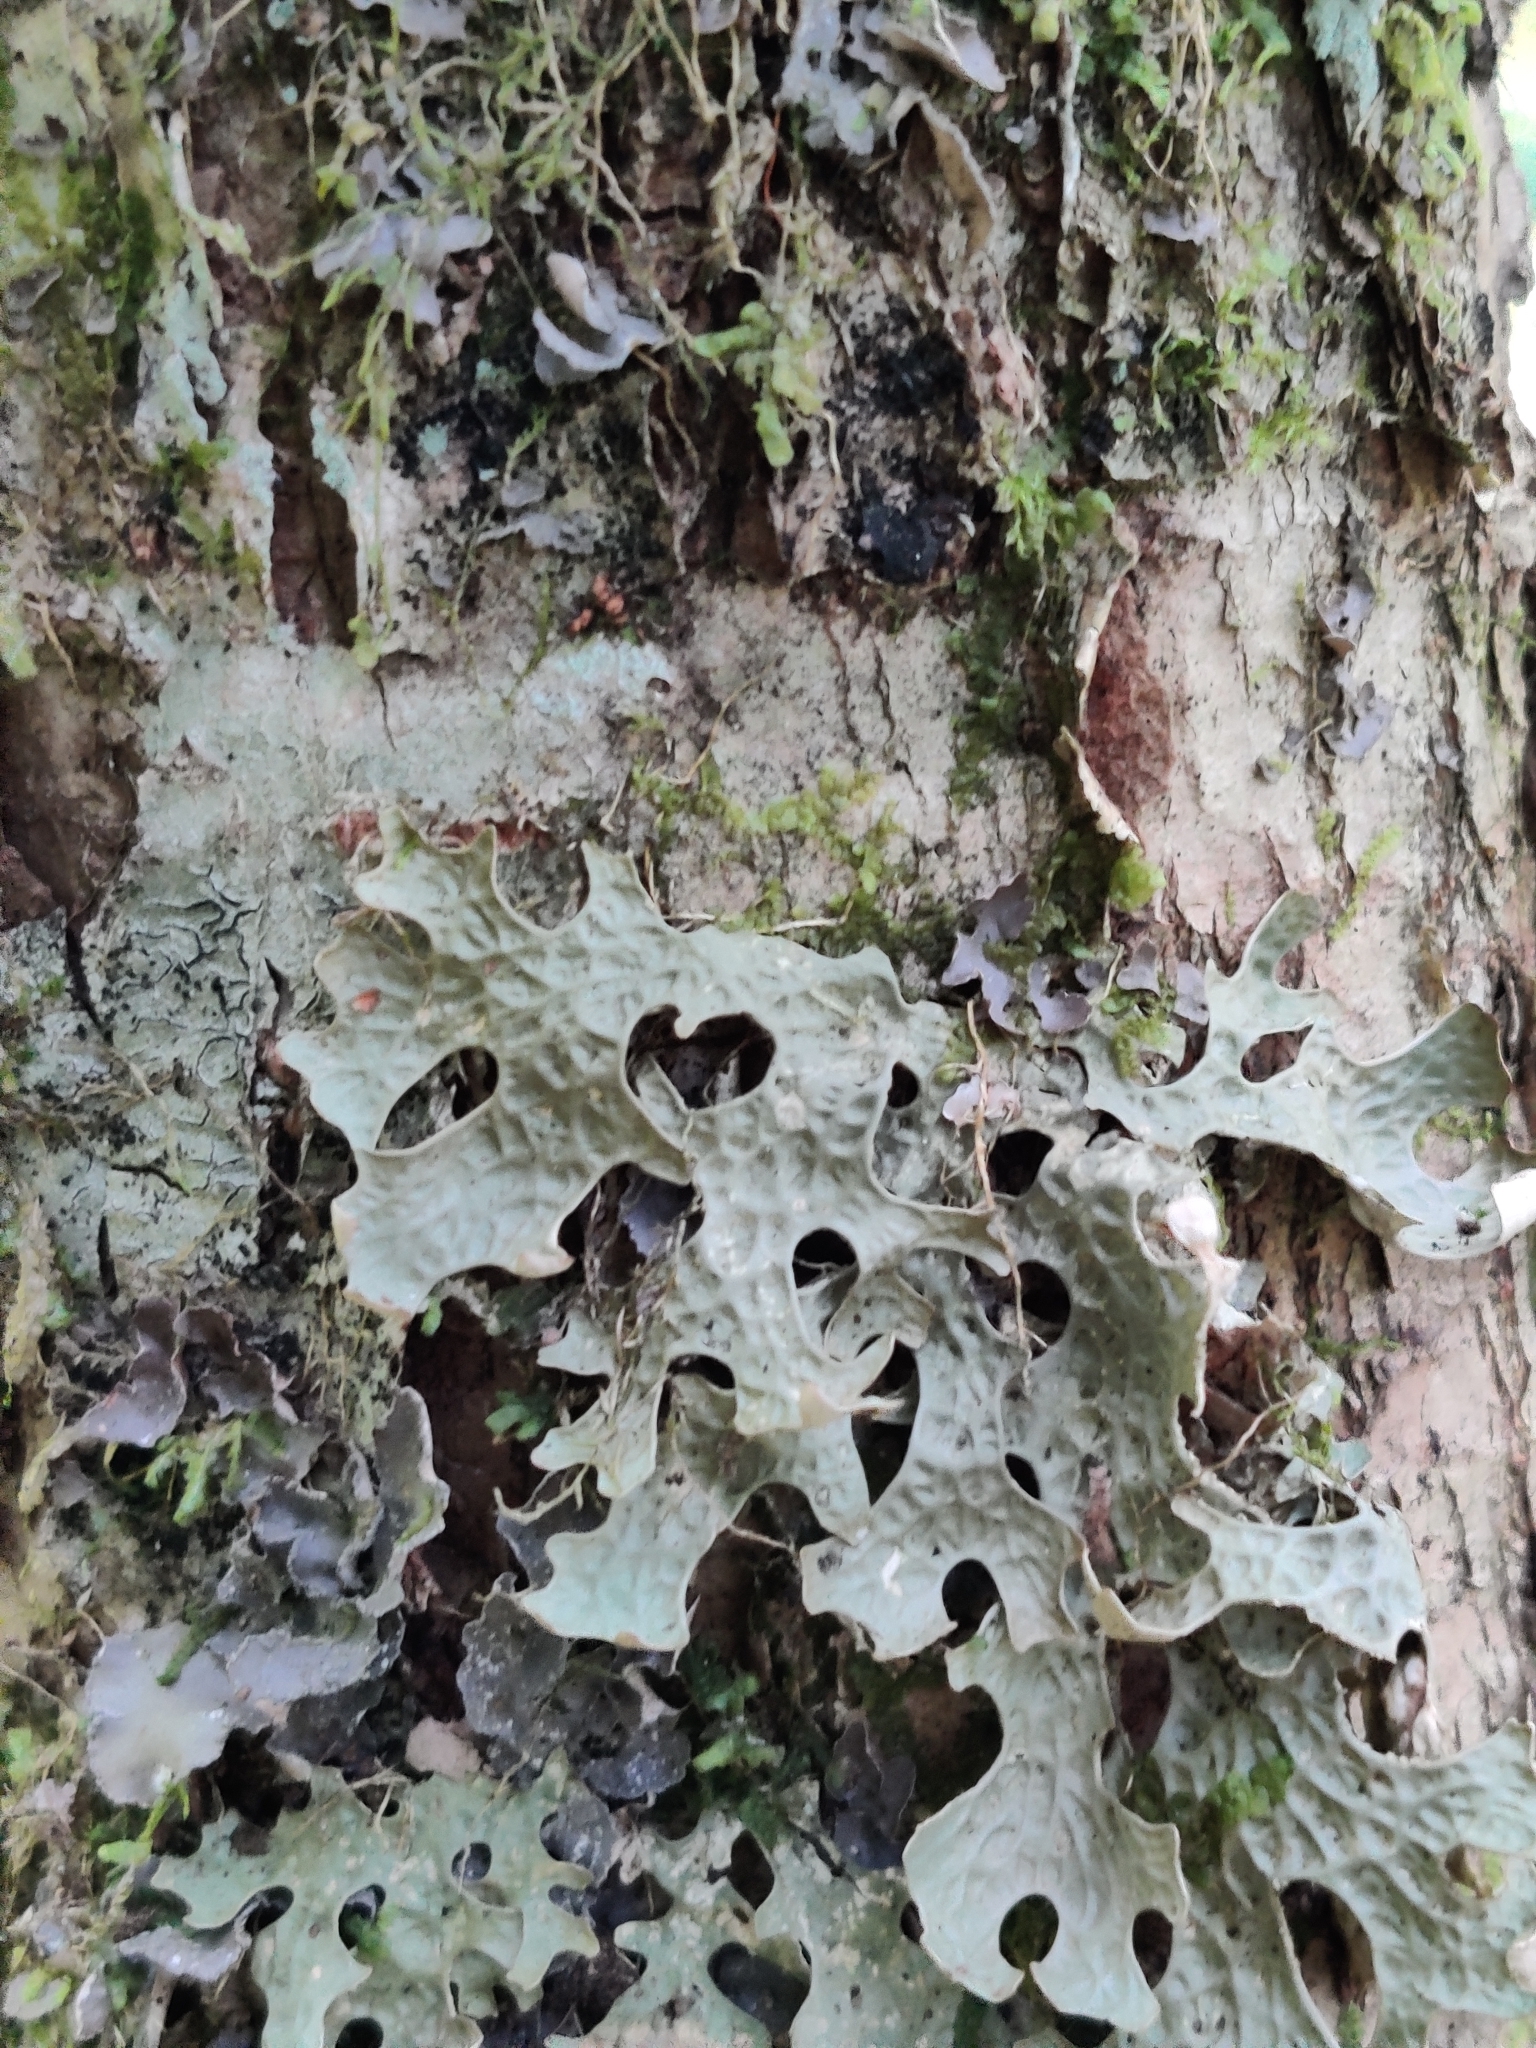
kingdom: Fungi
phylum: Ascomycota
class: Lecanoromycetes
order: Peltigerales
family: Lobariaceae
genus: Lobaria
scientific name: Lobaria pulmonaria
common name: Lungwort
